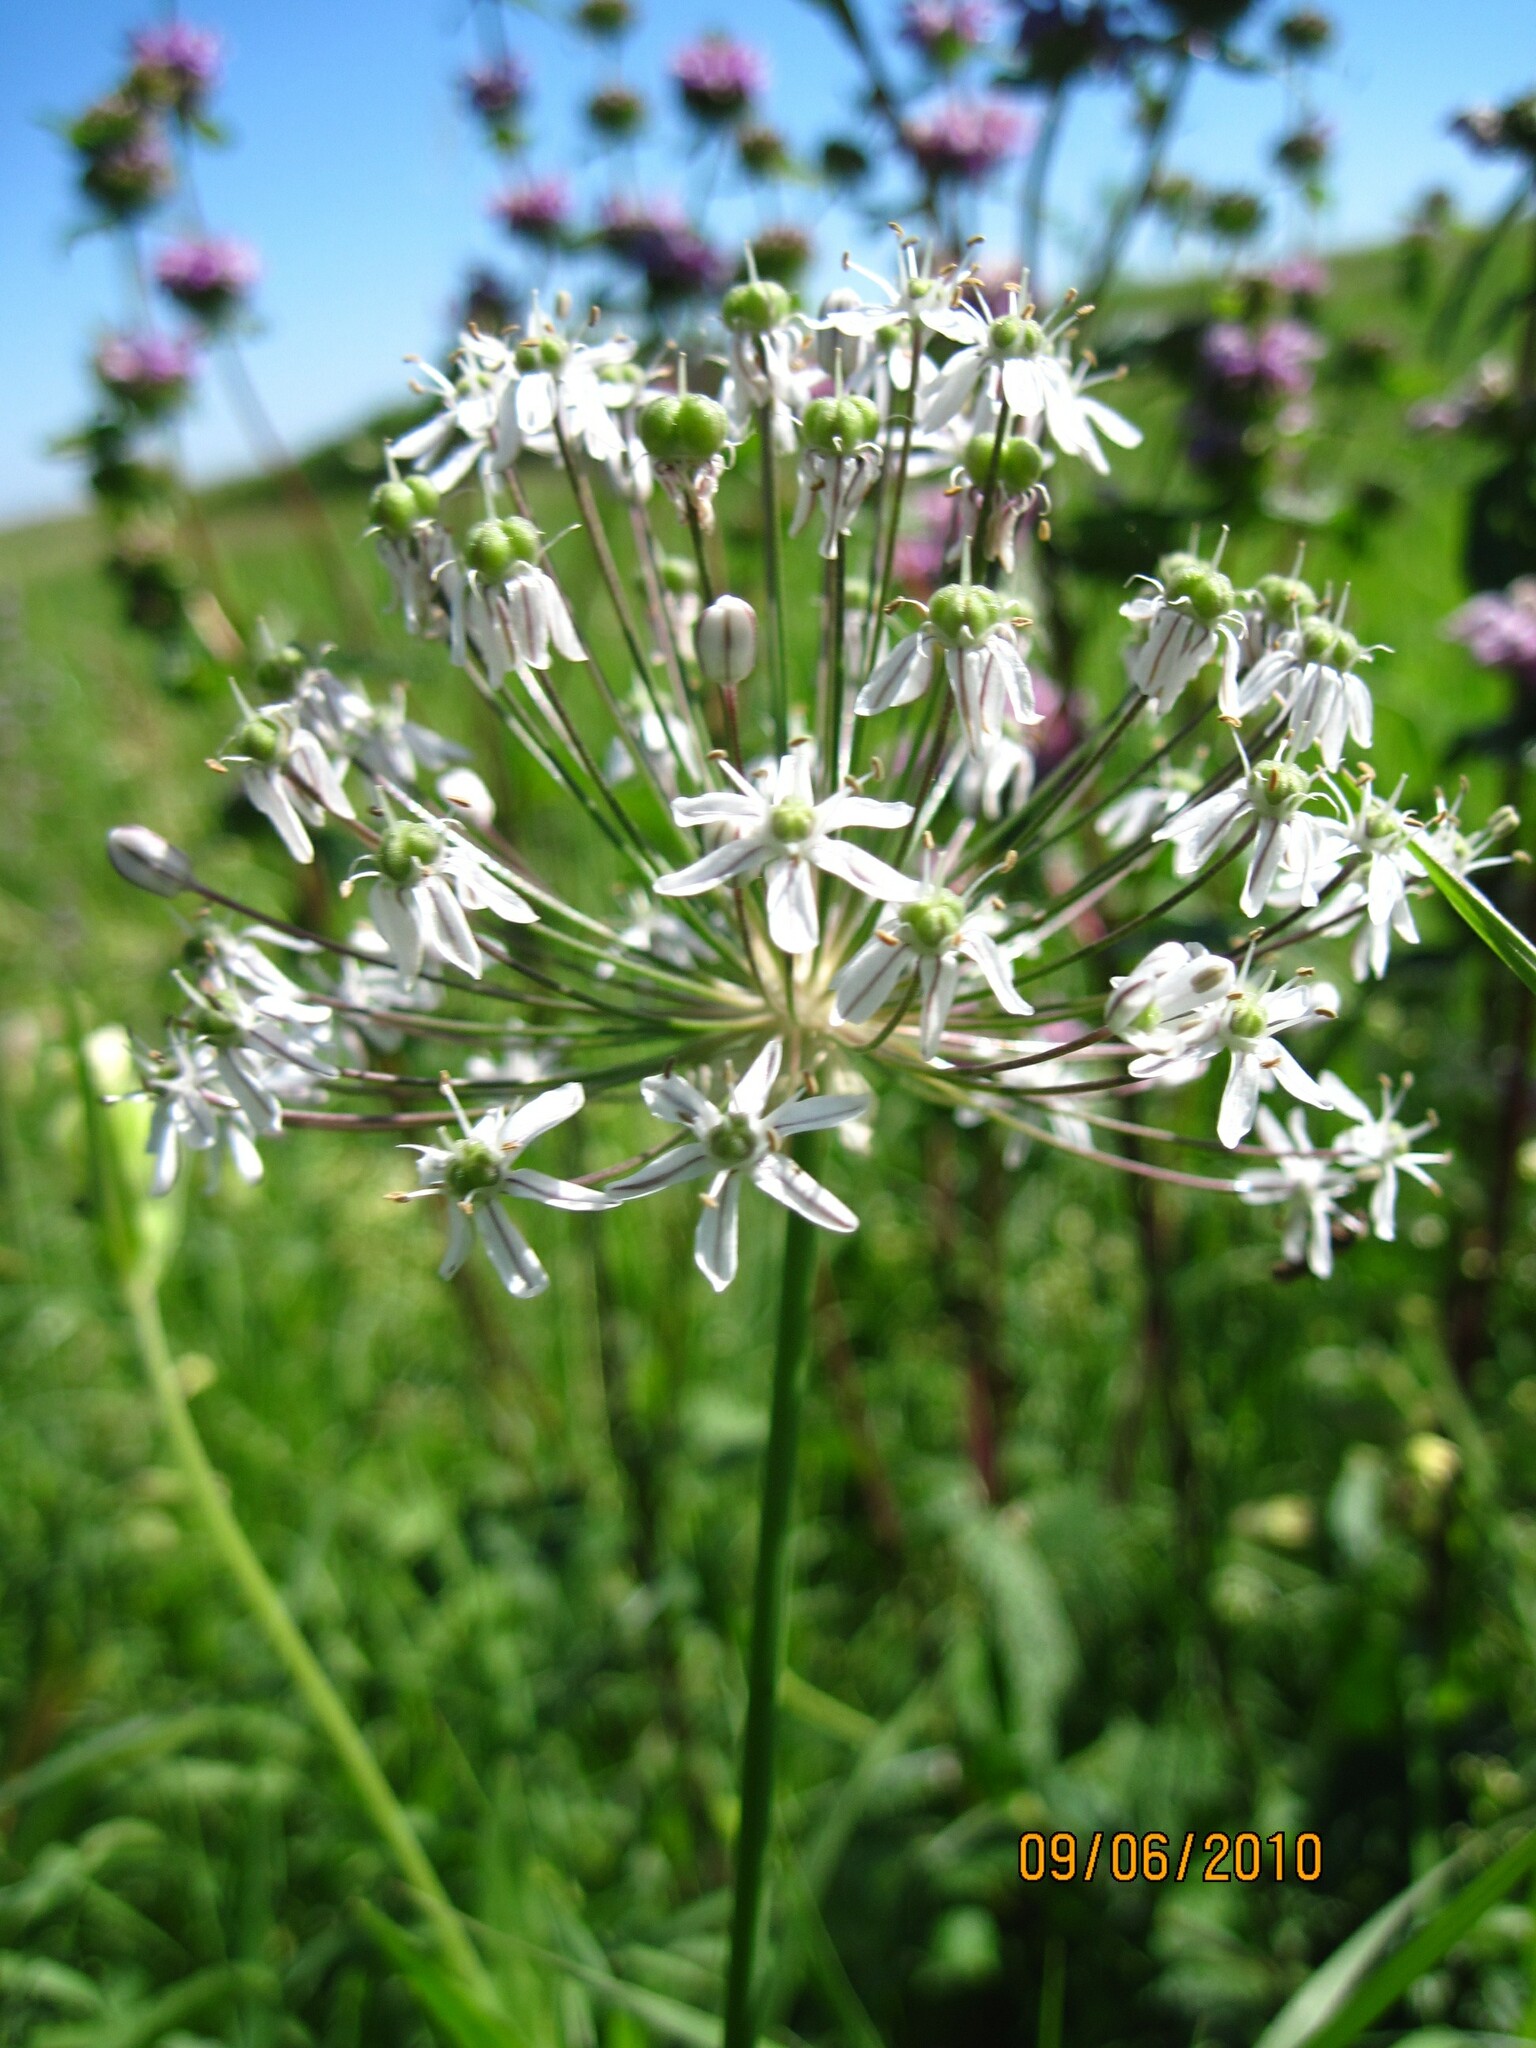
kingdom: Plantae
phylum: Tracheophyta
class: Liliopsida
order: Asparagales
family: Amaryllidaceae
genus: Allium
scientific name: Allium decipiens
